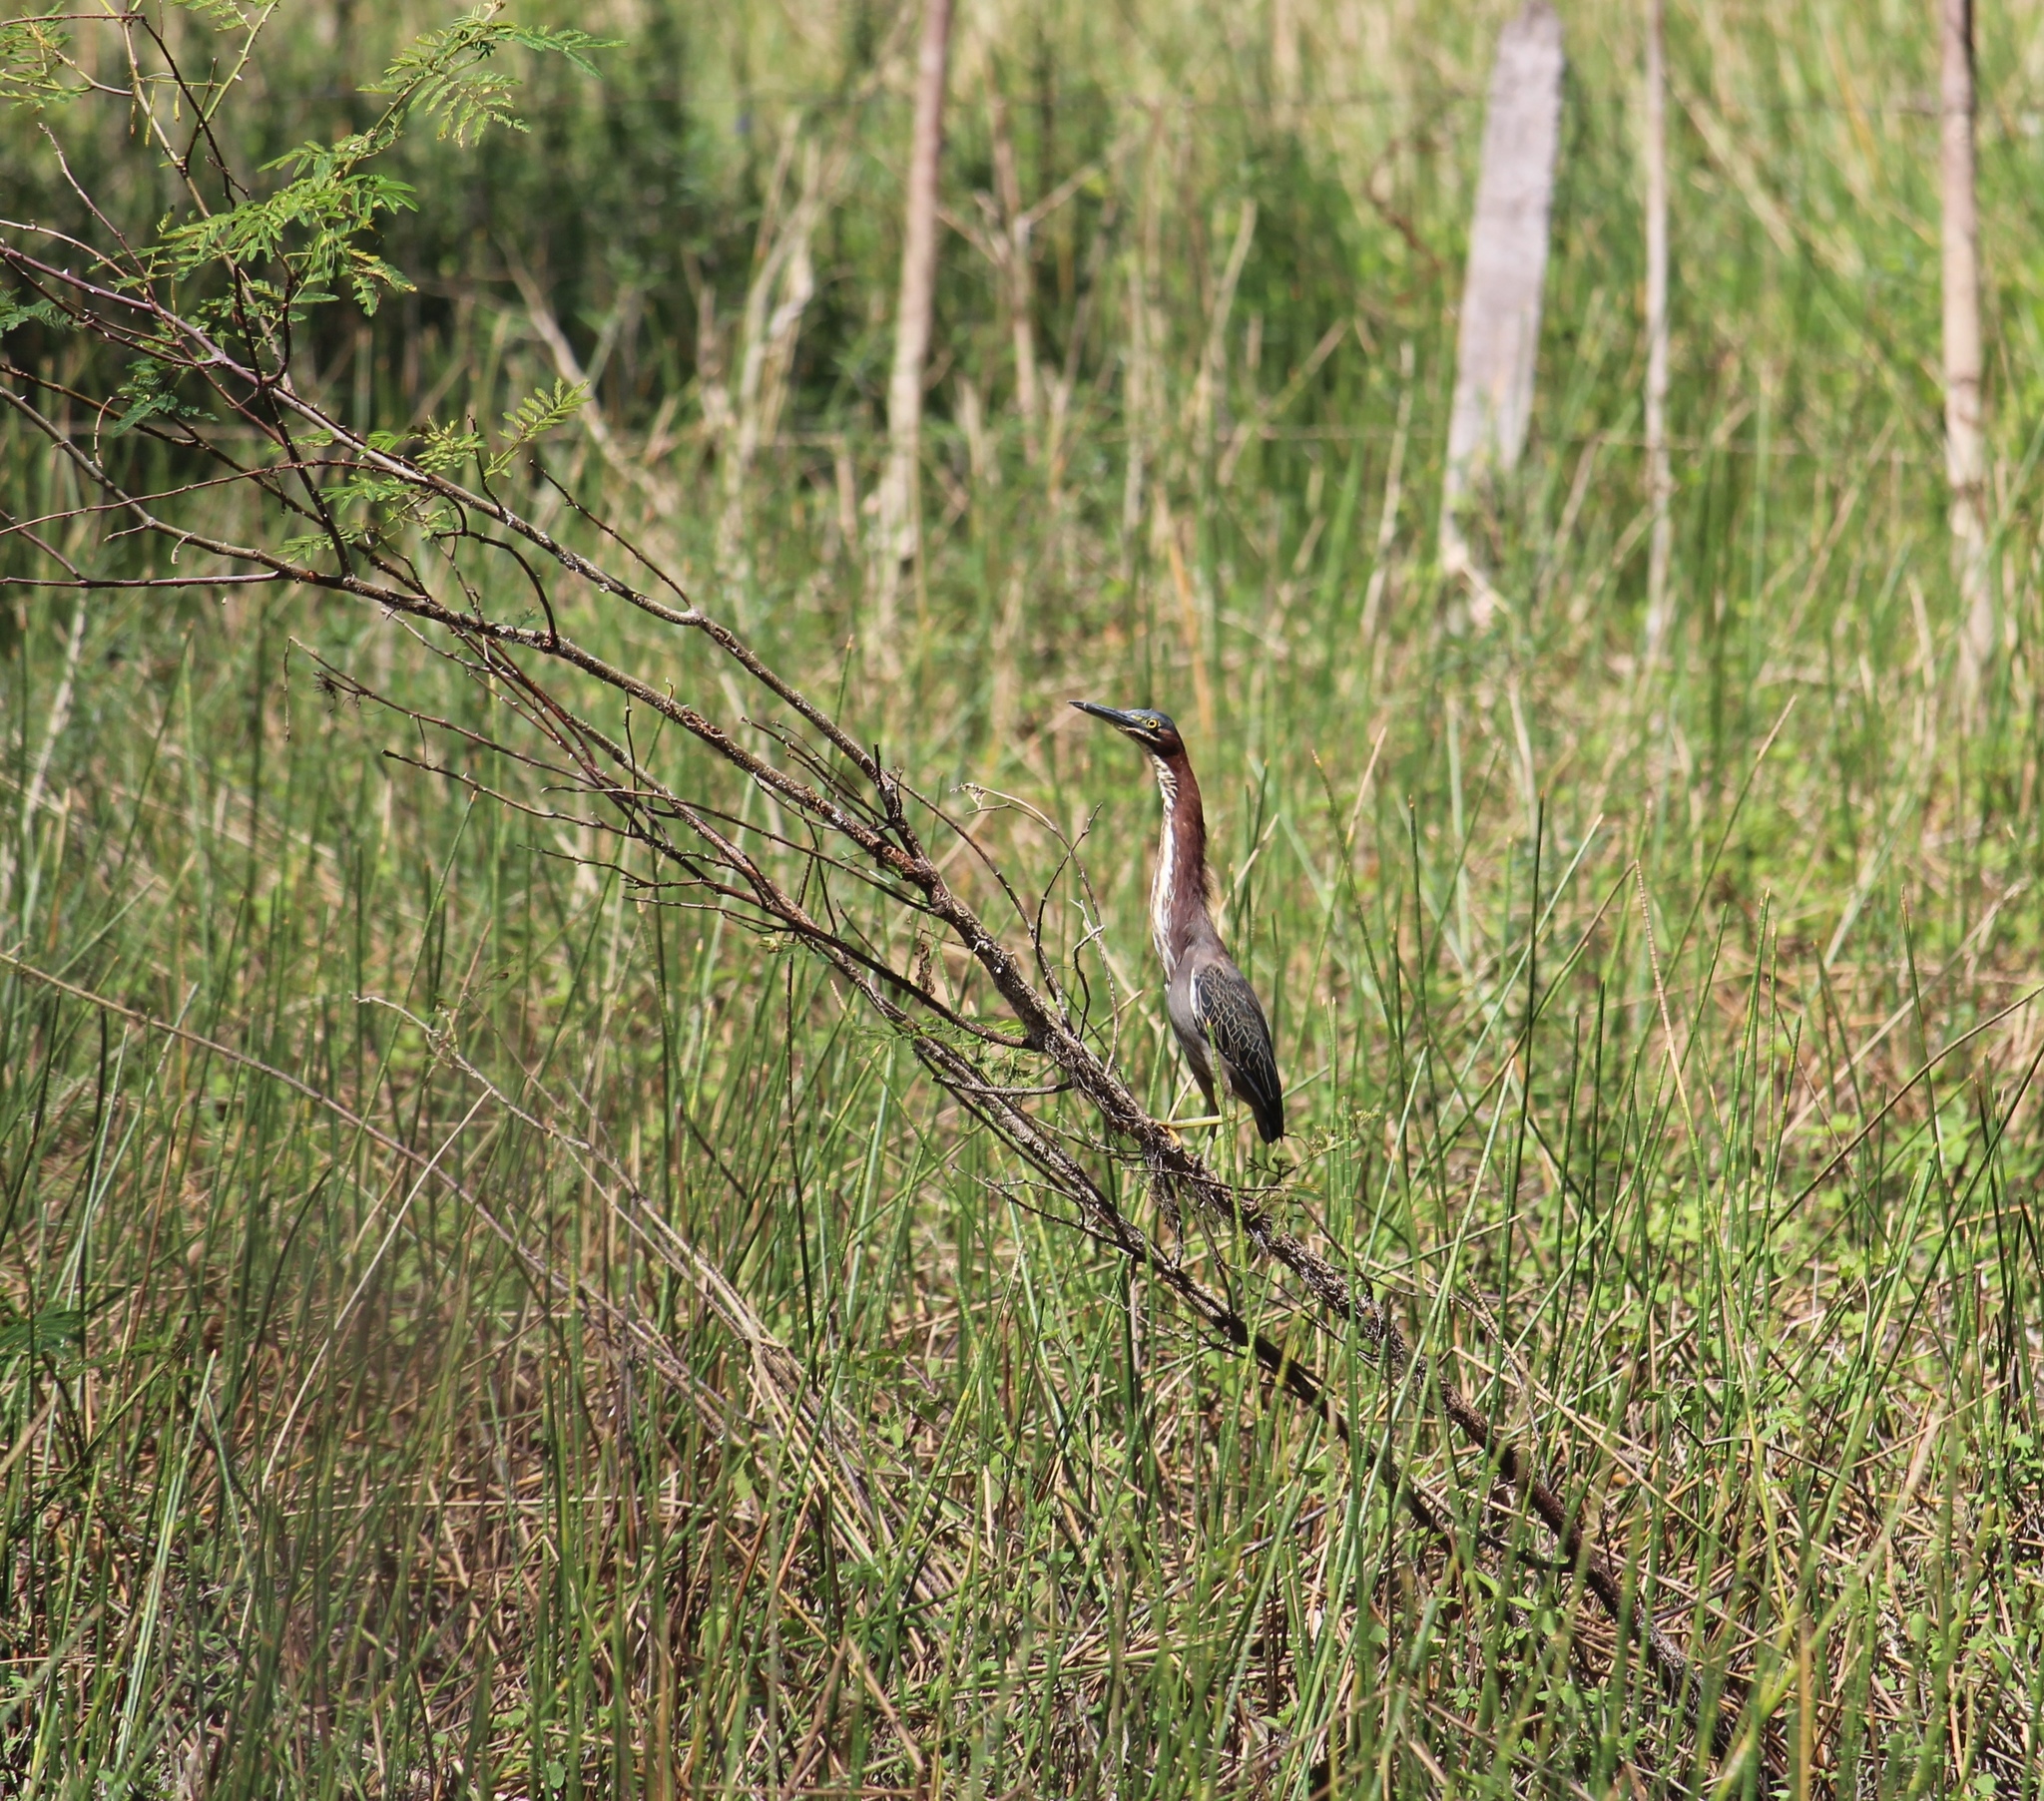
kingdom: Animalia
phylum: Chordata
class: Aves
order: Pelecaniformes
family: Ardeidae
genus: Butorides
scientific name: Butorides virescens
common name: Green heron
